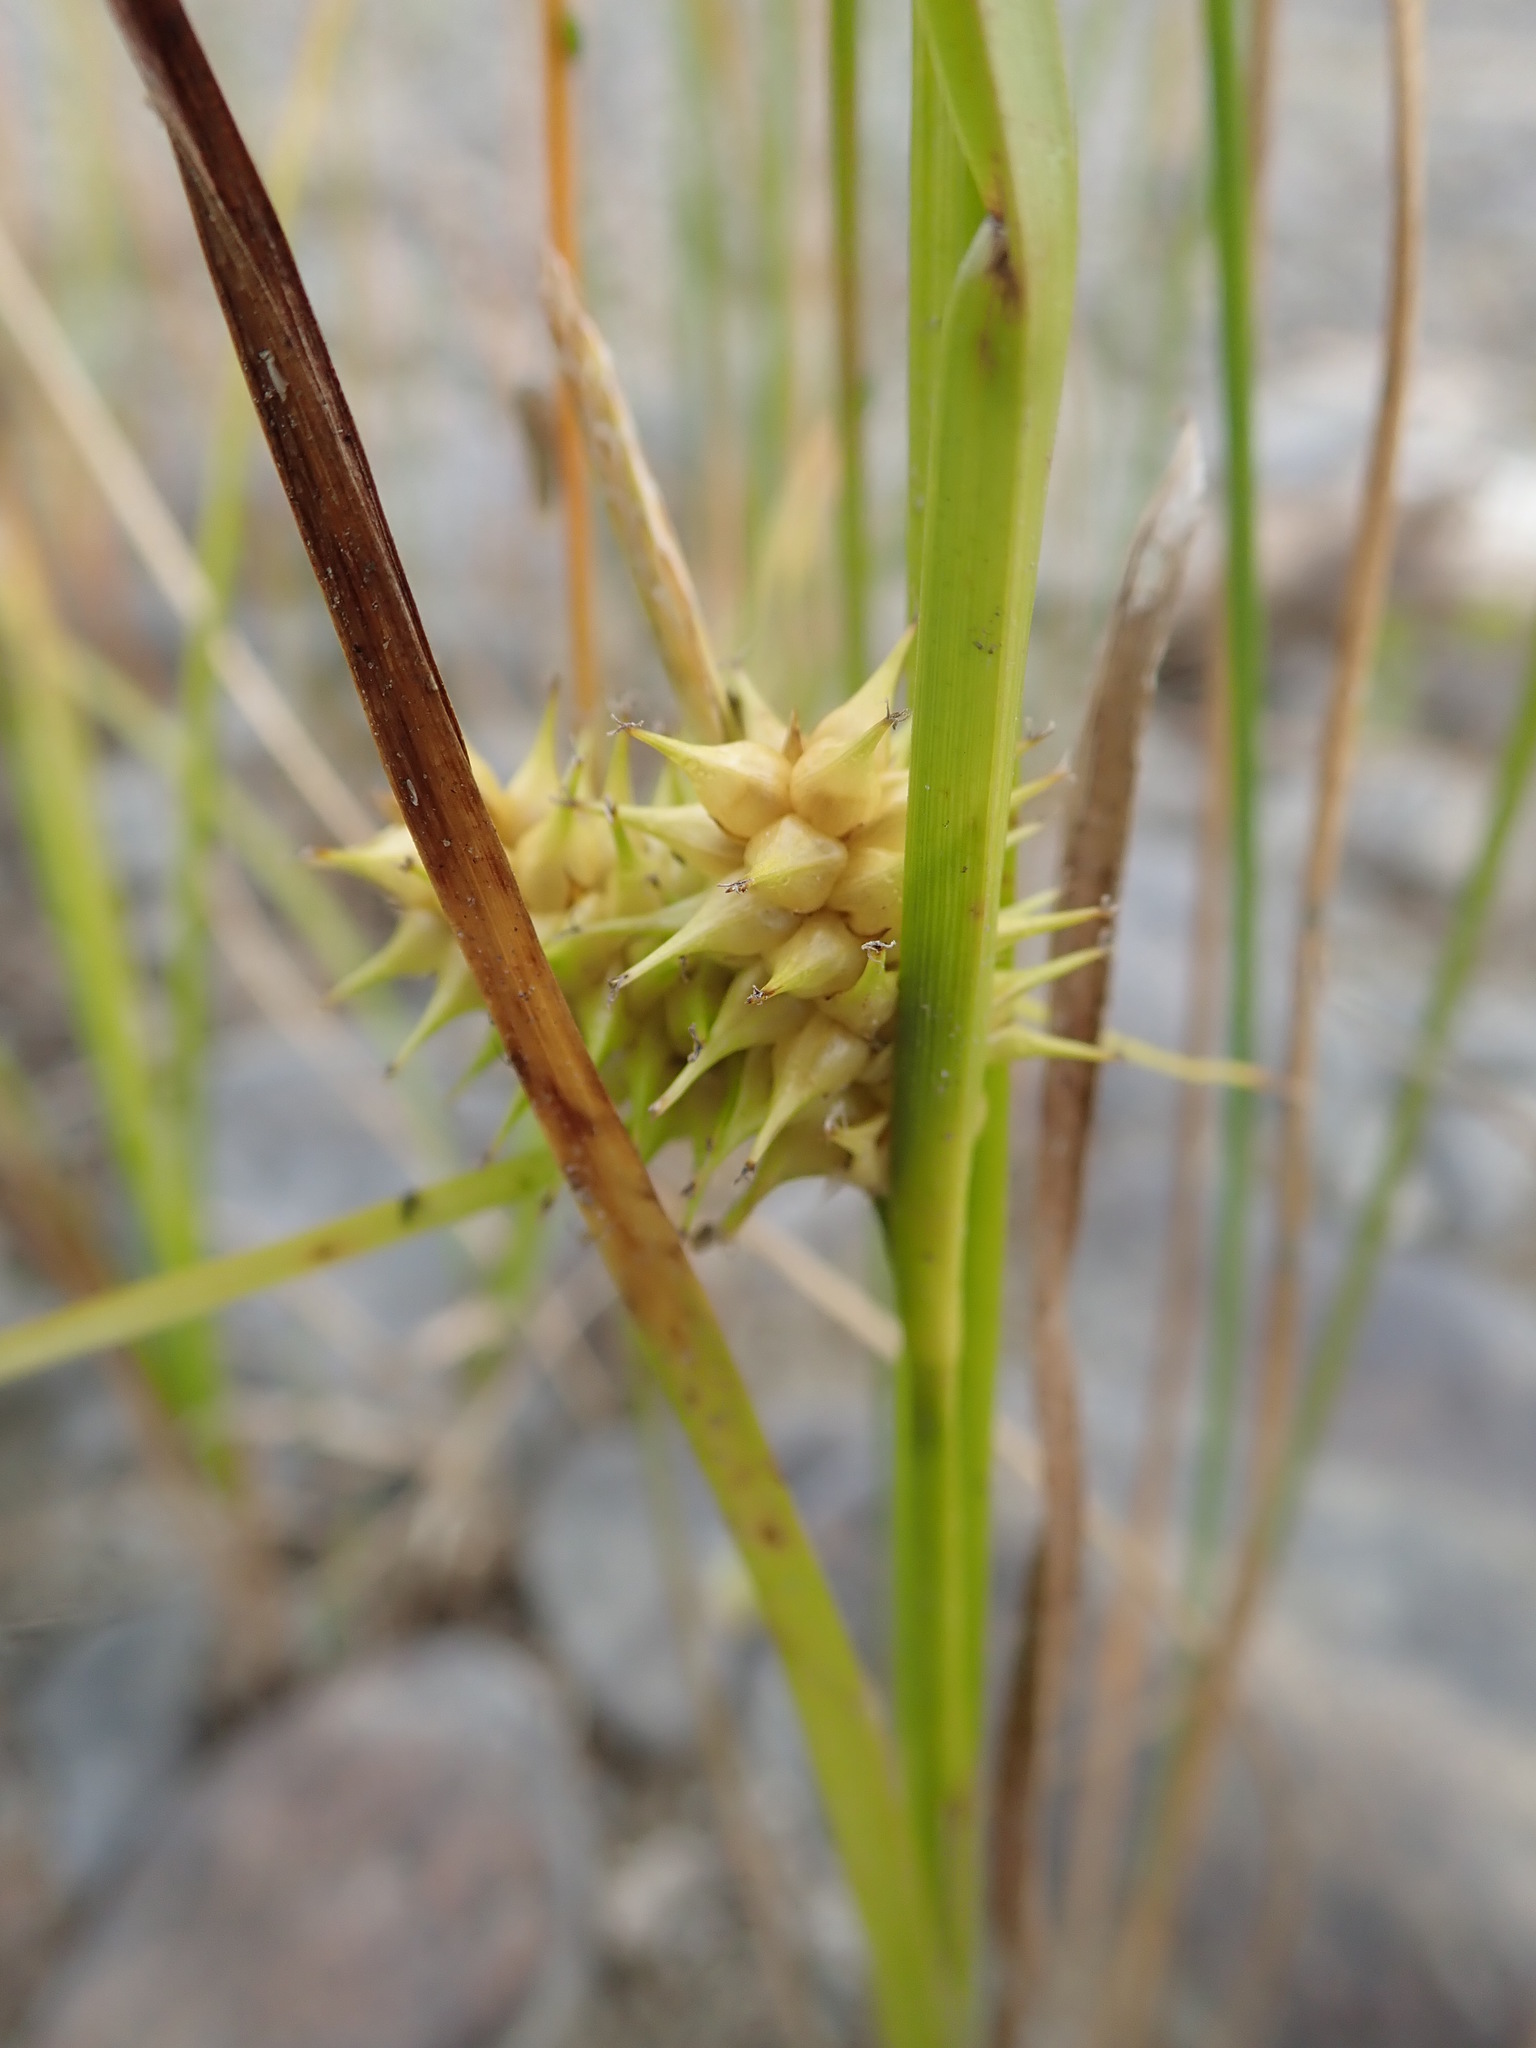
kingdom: Plantae
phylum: Tracheophyta
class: Liliopsida
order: Poales
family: Cyperaceae
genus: Carex
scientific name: Carex cryptolepis
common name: Northeastern sedge
